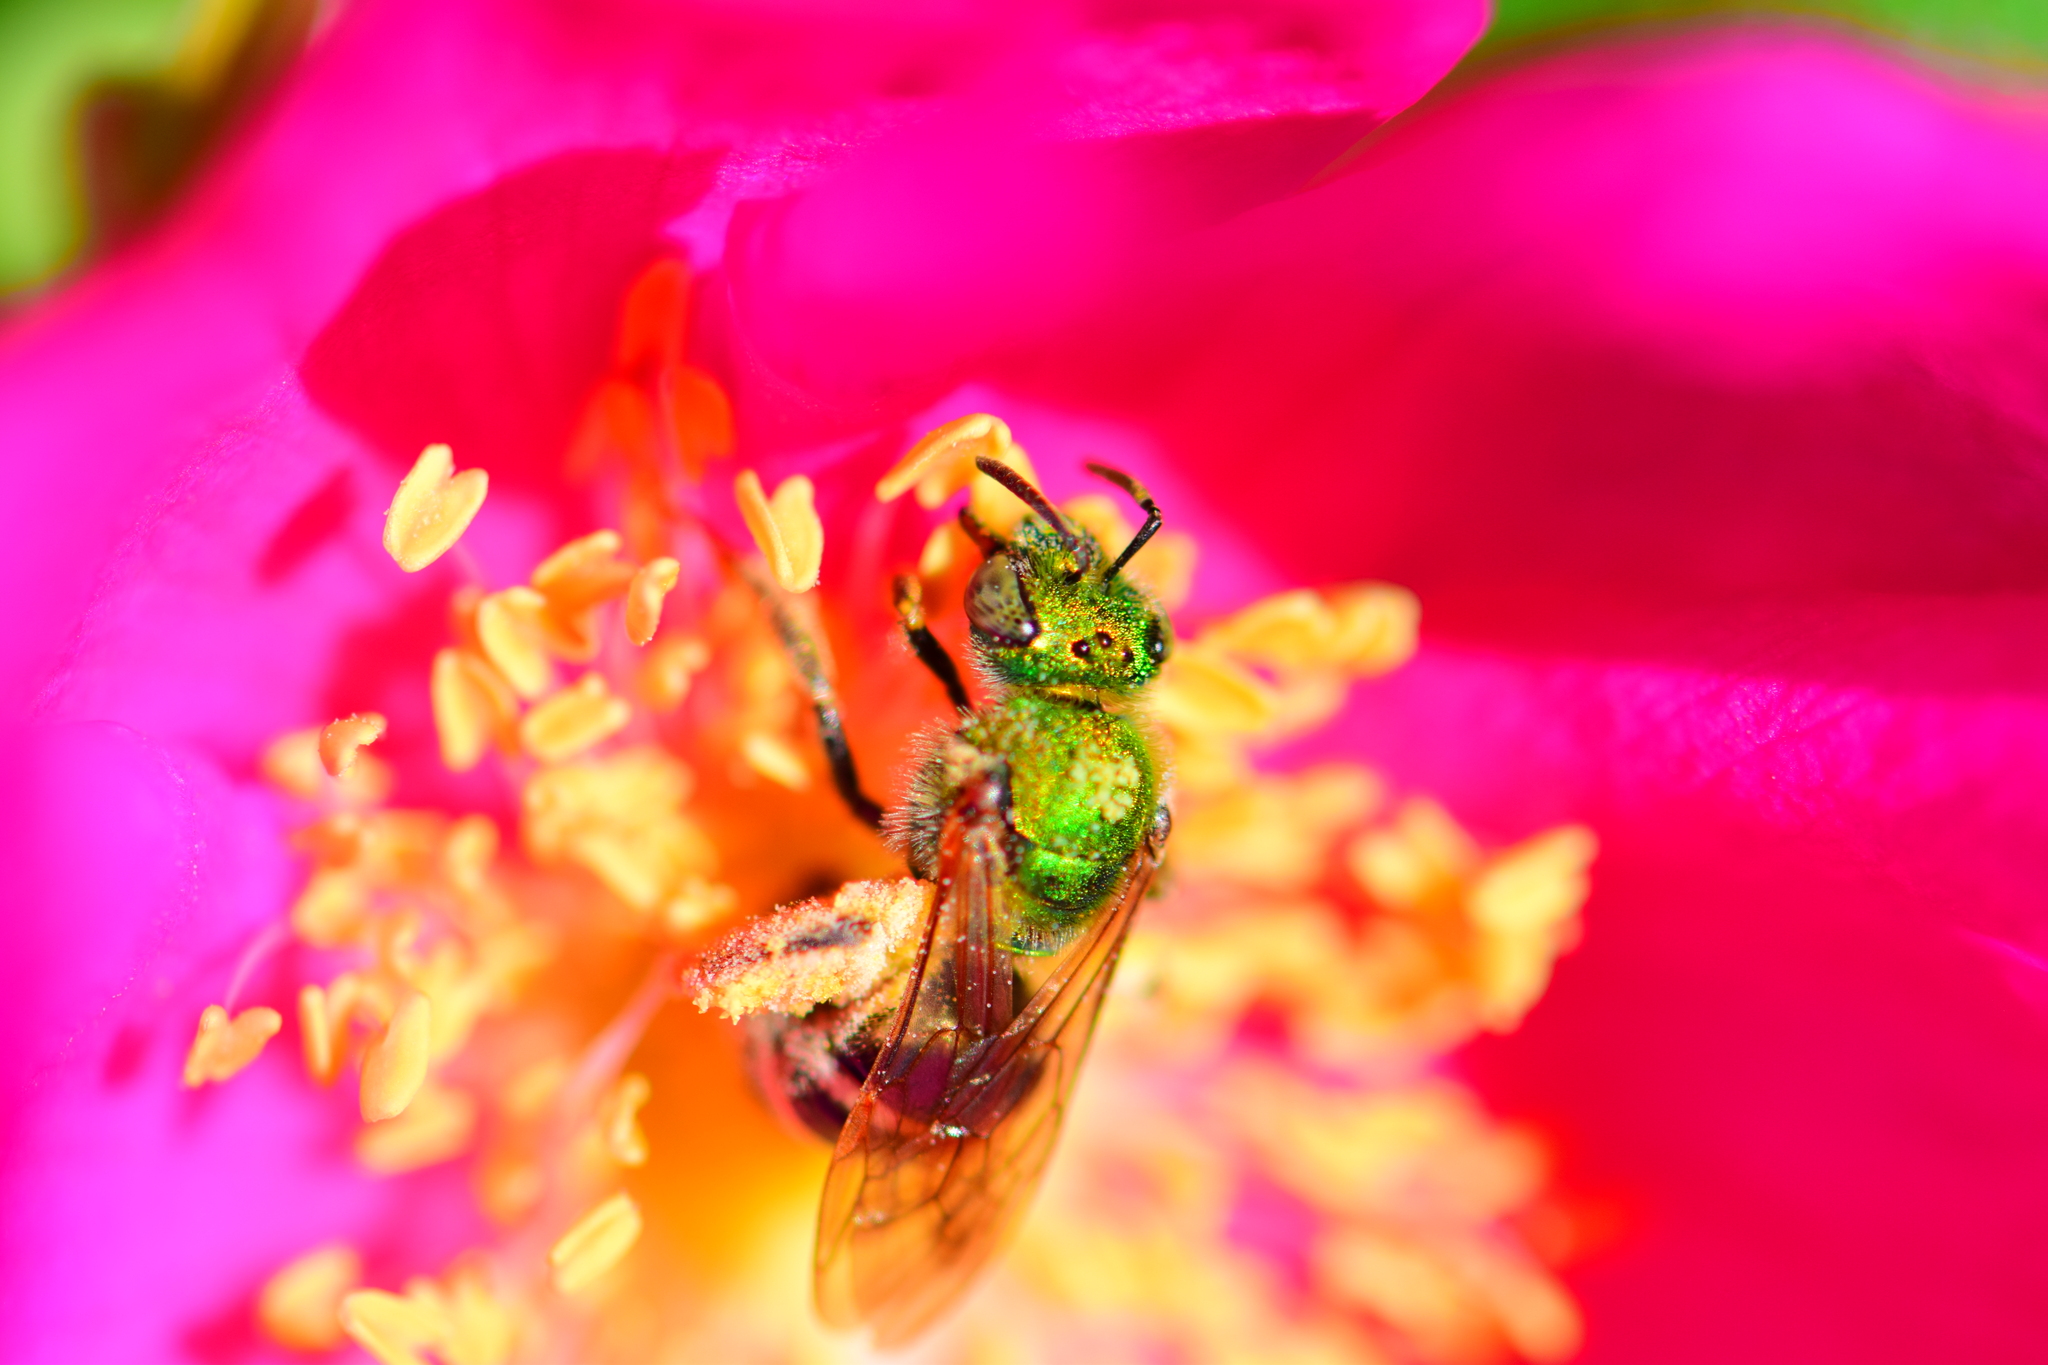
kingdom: Animalia
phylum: Arthropoda
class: Insecta
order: Hymenoptera
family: Halictidae
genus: Agapostemon
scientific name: Agapostemon virescens
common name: Bicolored striped sweat bee
